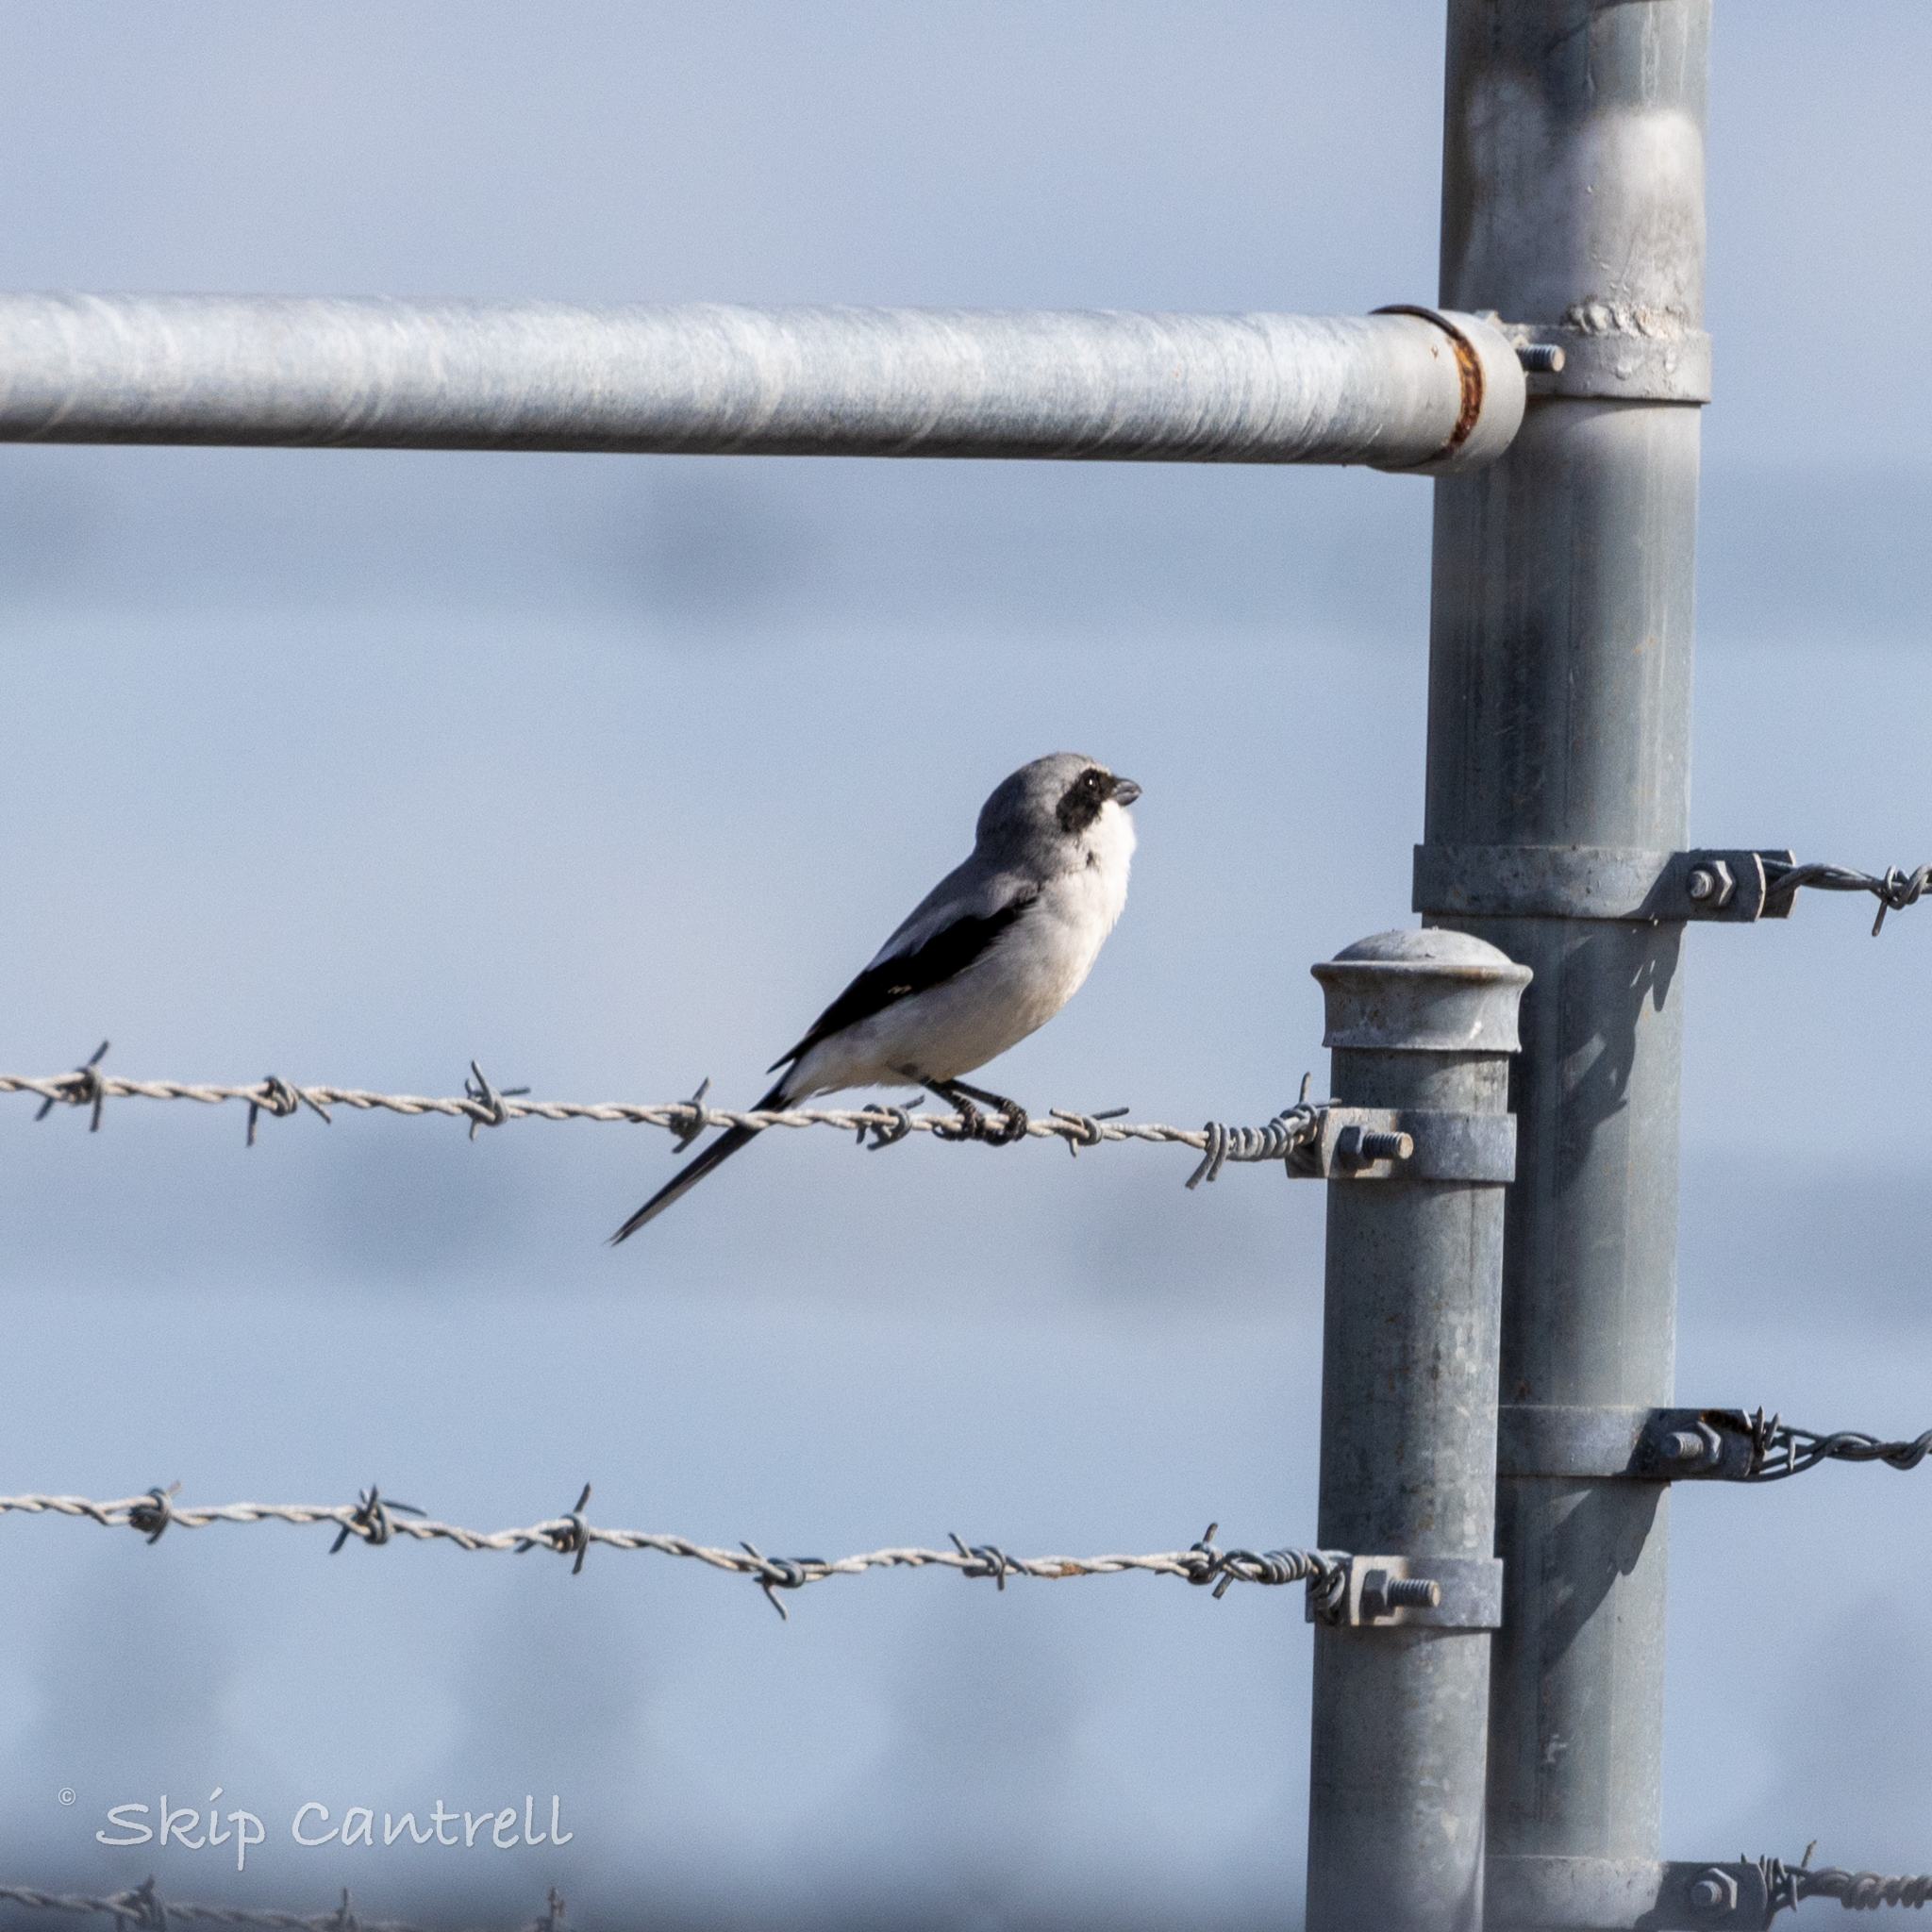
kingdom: Animalia
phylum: Chordata
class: Aves
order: Passeriformes
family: Laniidae
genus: Lanius
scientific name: Lanius ludovicianus
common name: Loggerhead shrike
